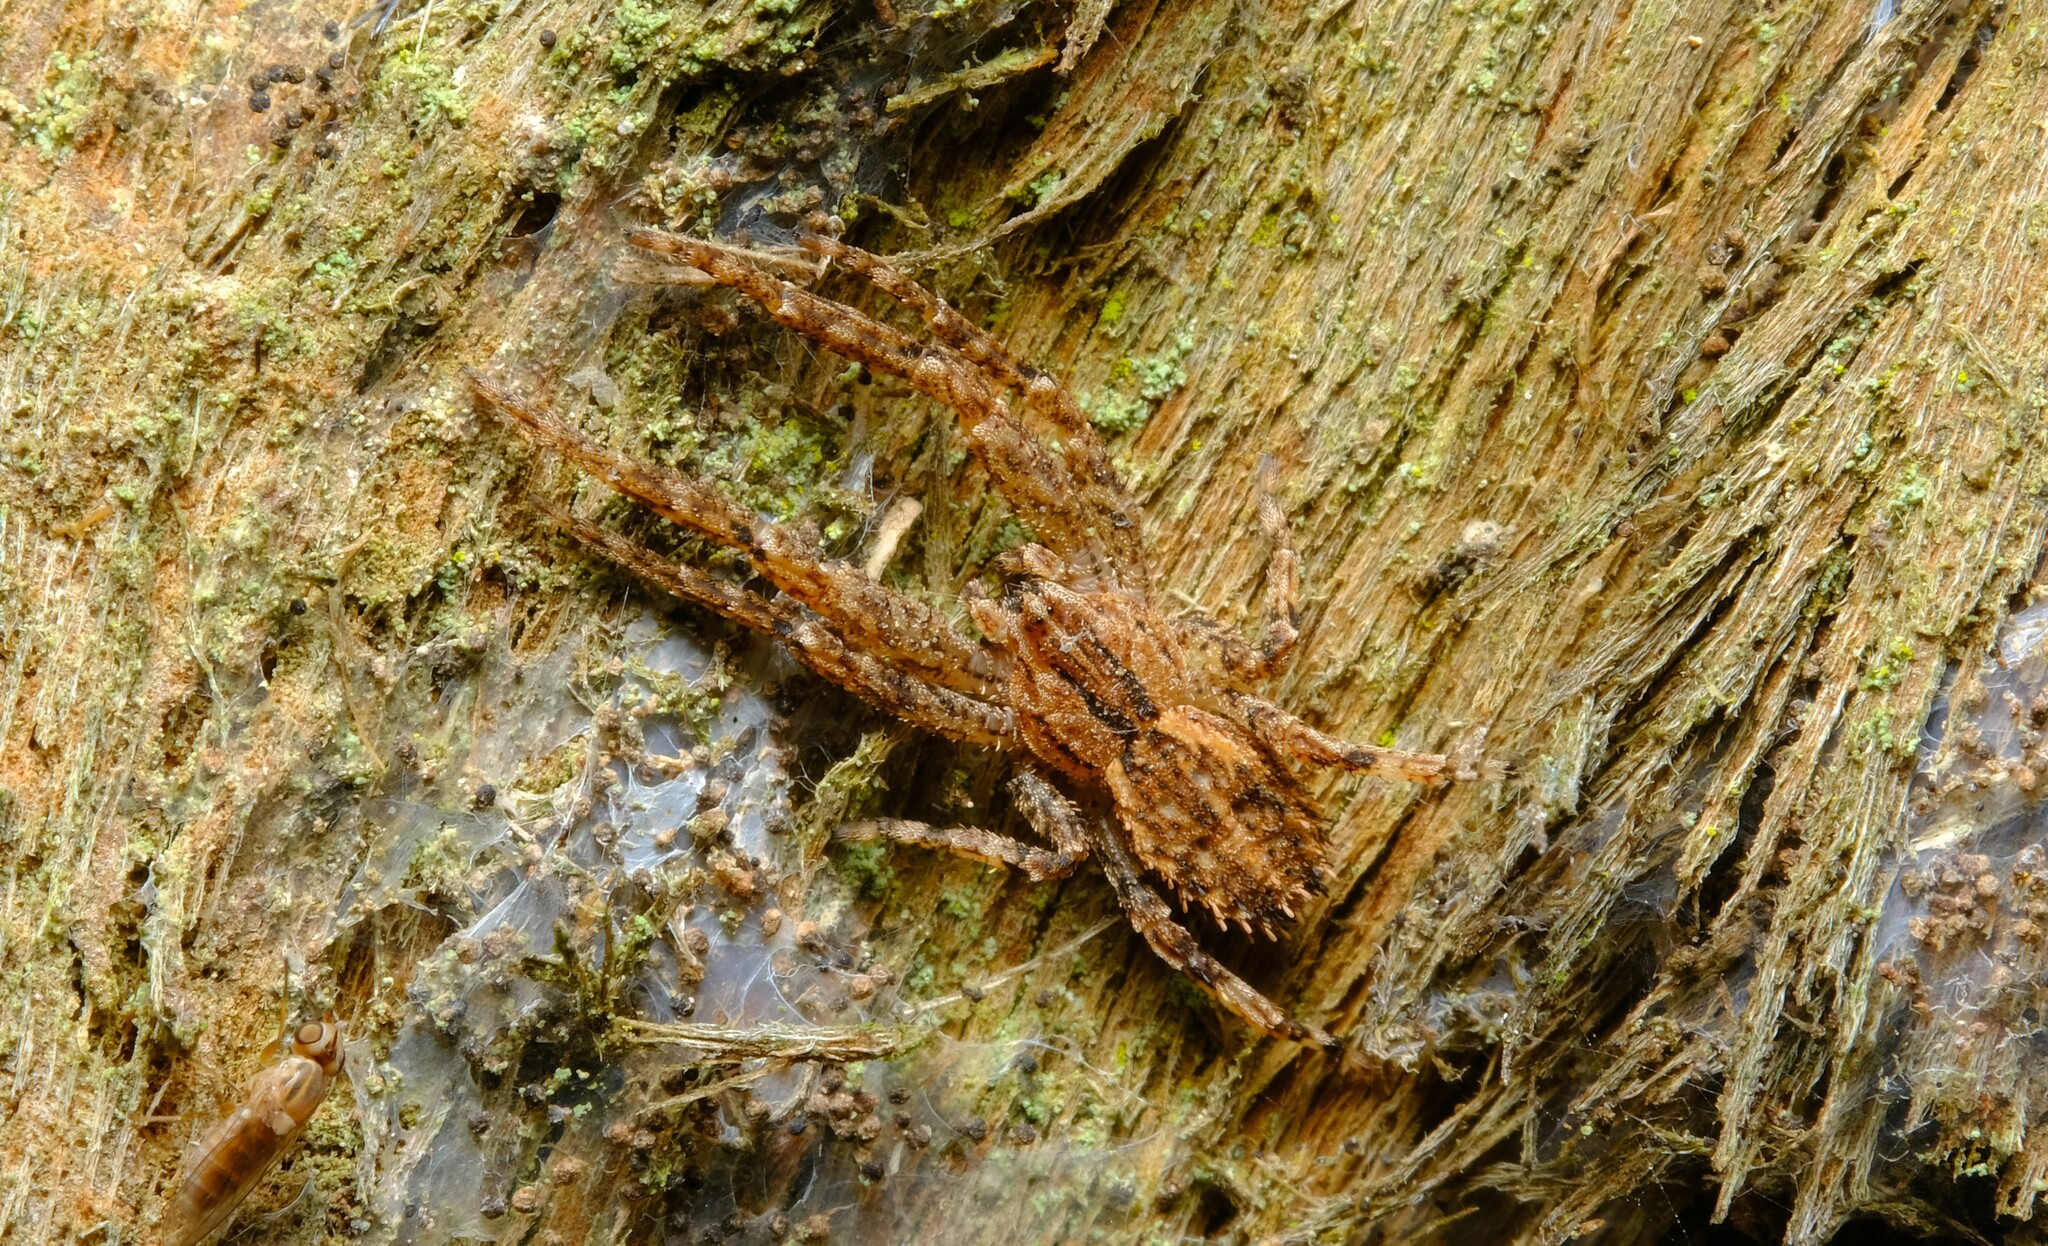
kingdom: Animalia
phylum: Arthropoda
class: Arachnida
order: Araneae
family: Thomisidae
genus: Isala
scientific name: Isala cambridgei
